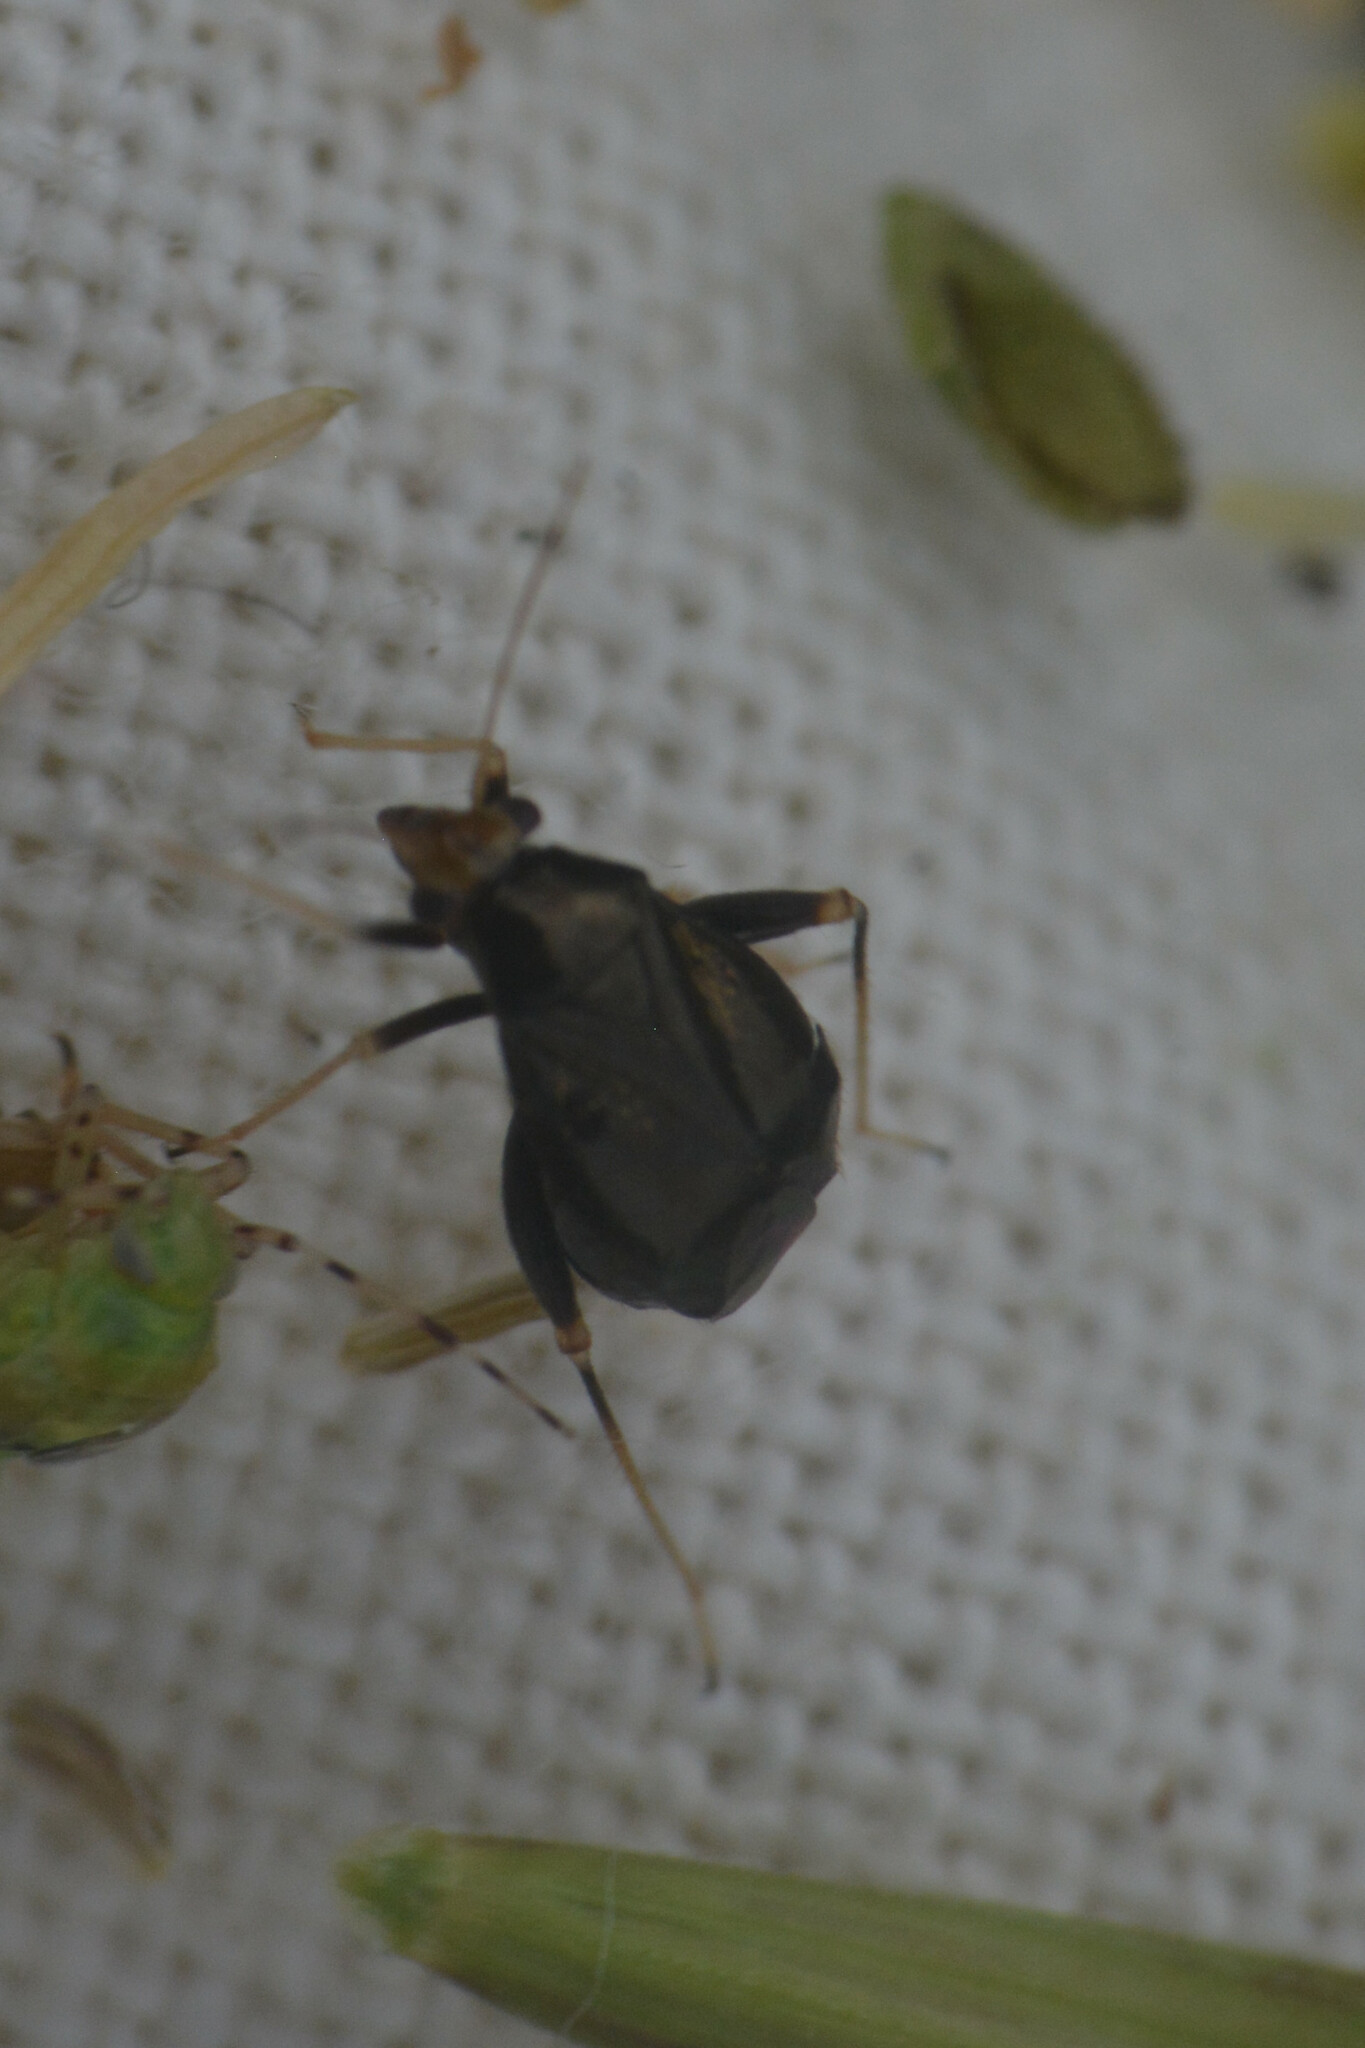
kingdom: Animalia
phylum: Arthropoda
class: Insecta
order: Hemiptera
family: Miridae
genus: Halticus
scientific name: Halticus luteicollis
